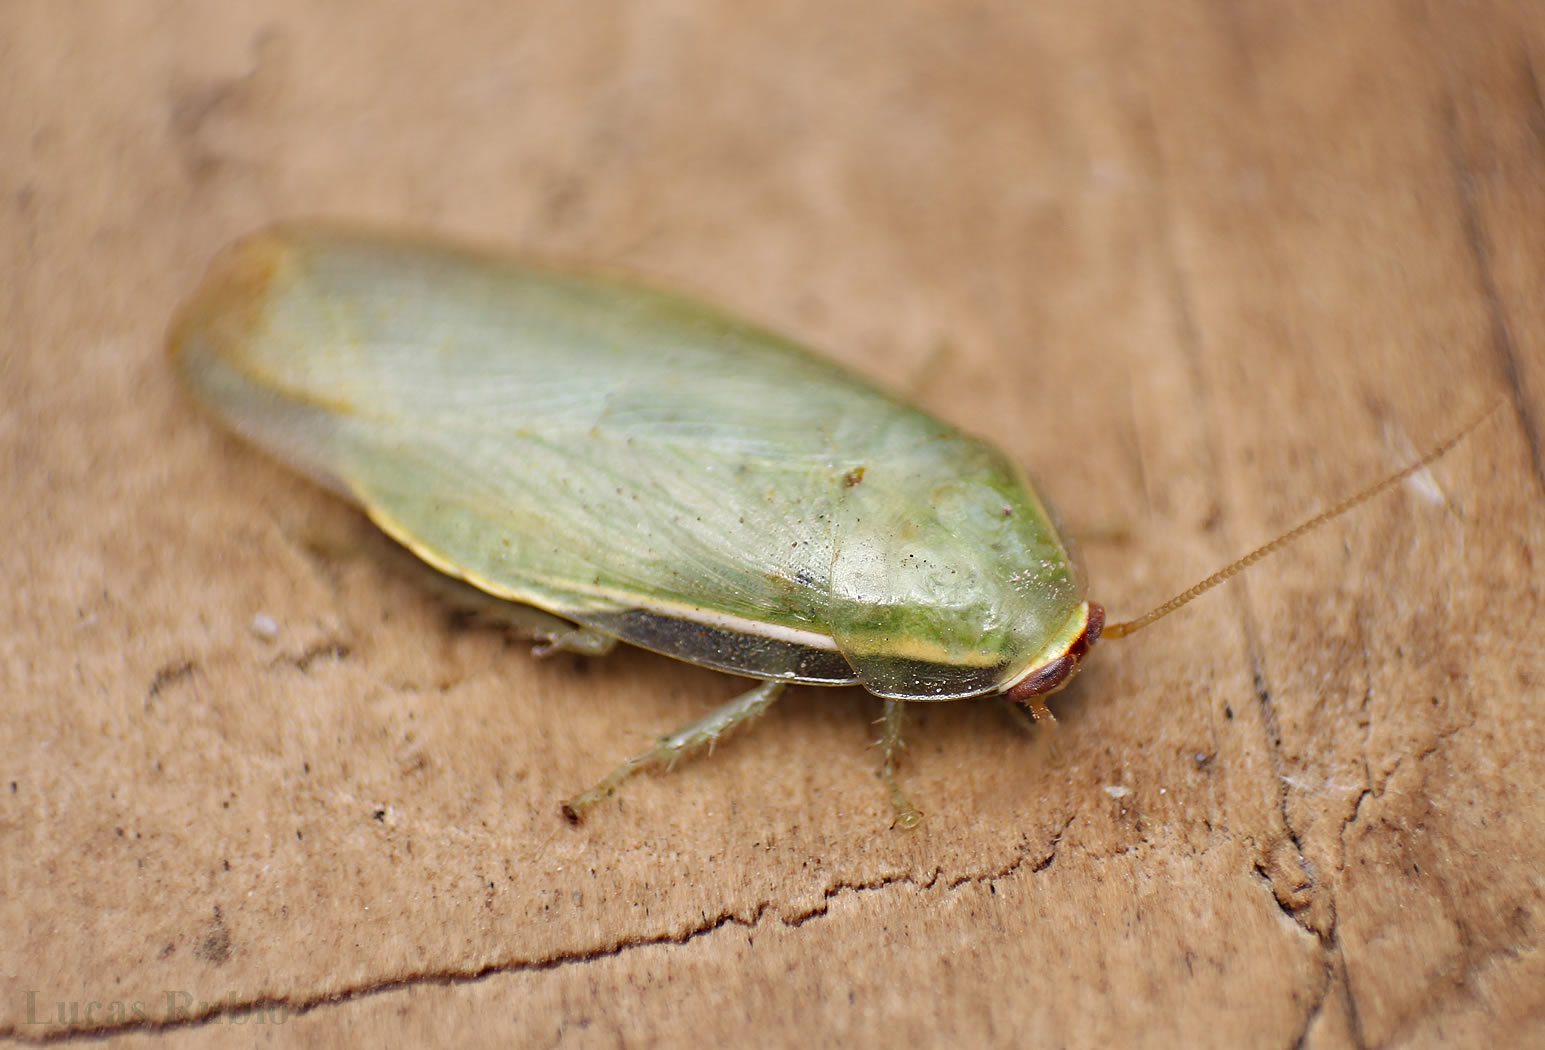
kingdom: Animalia
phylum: Arthropoda
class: Insecta
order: Blattodea
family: Blaberidae
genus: Panchlora
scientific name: Panchlora thalassina
